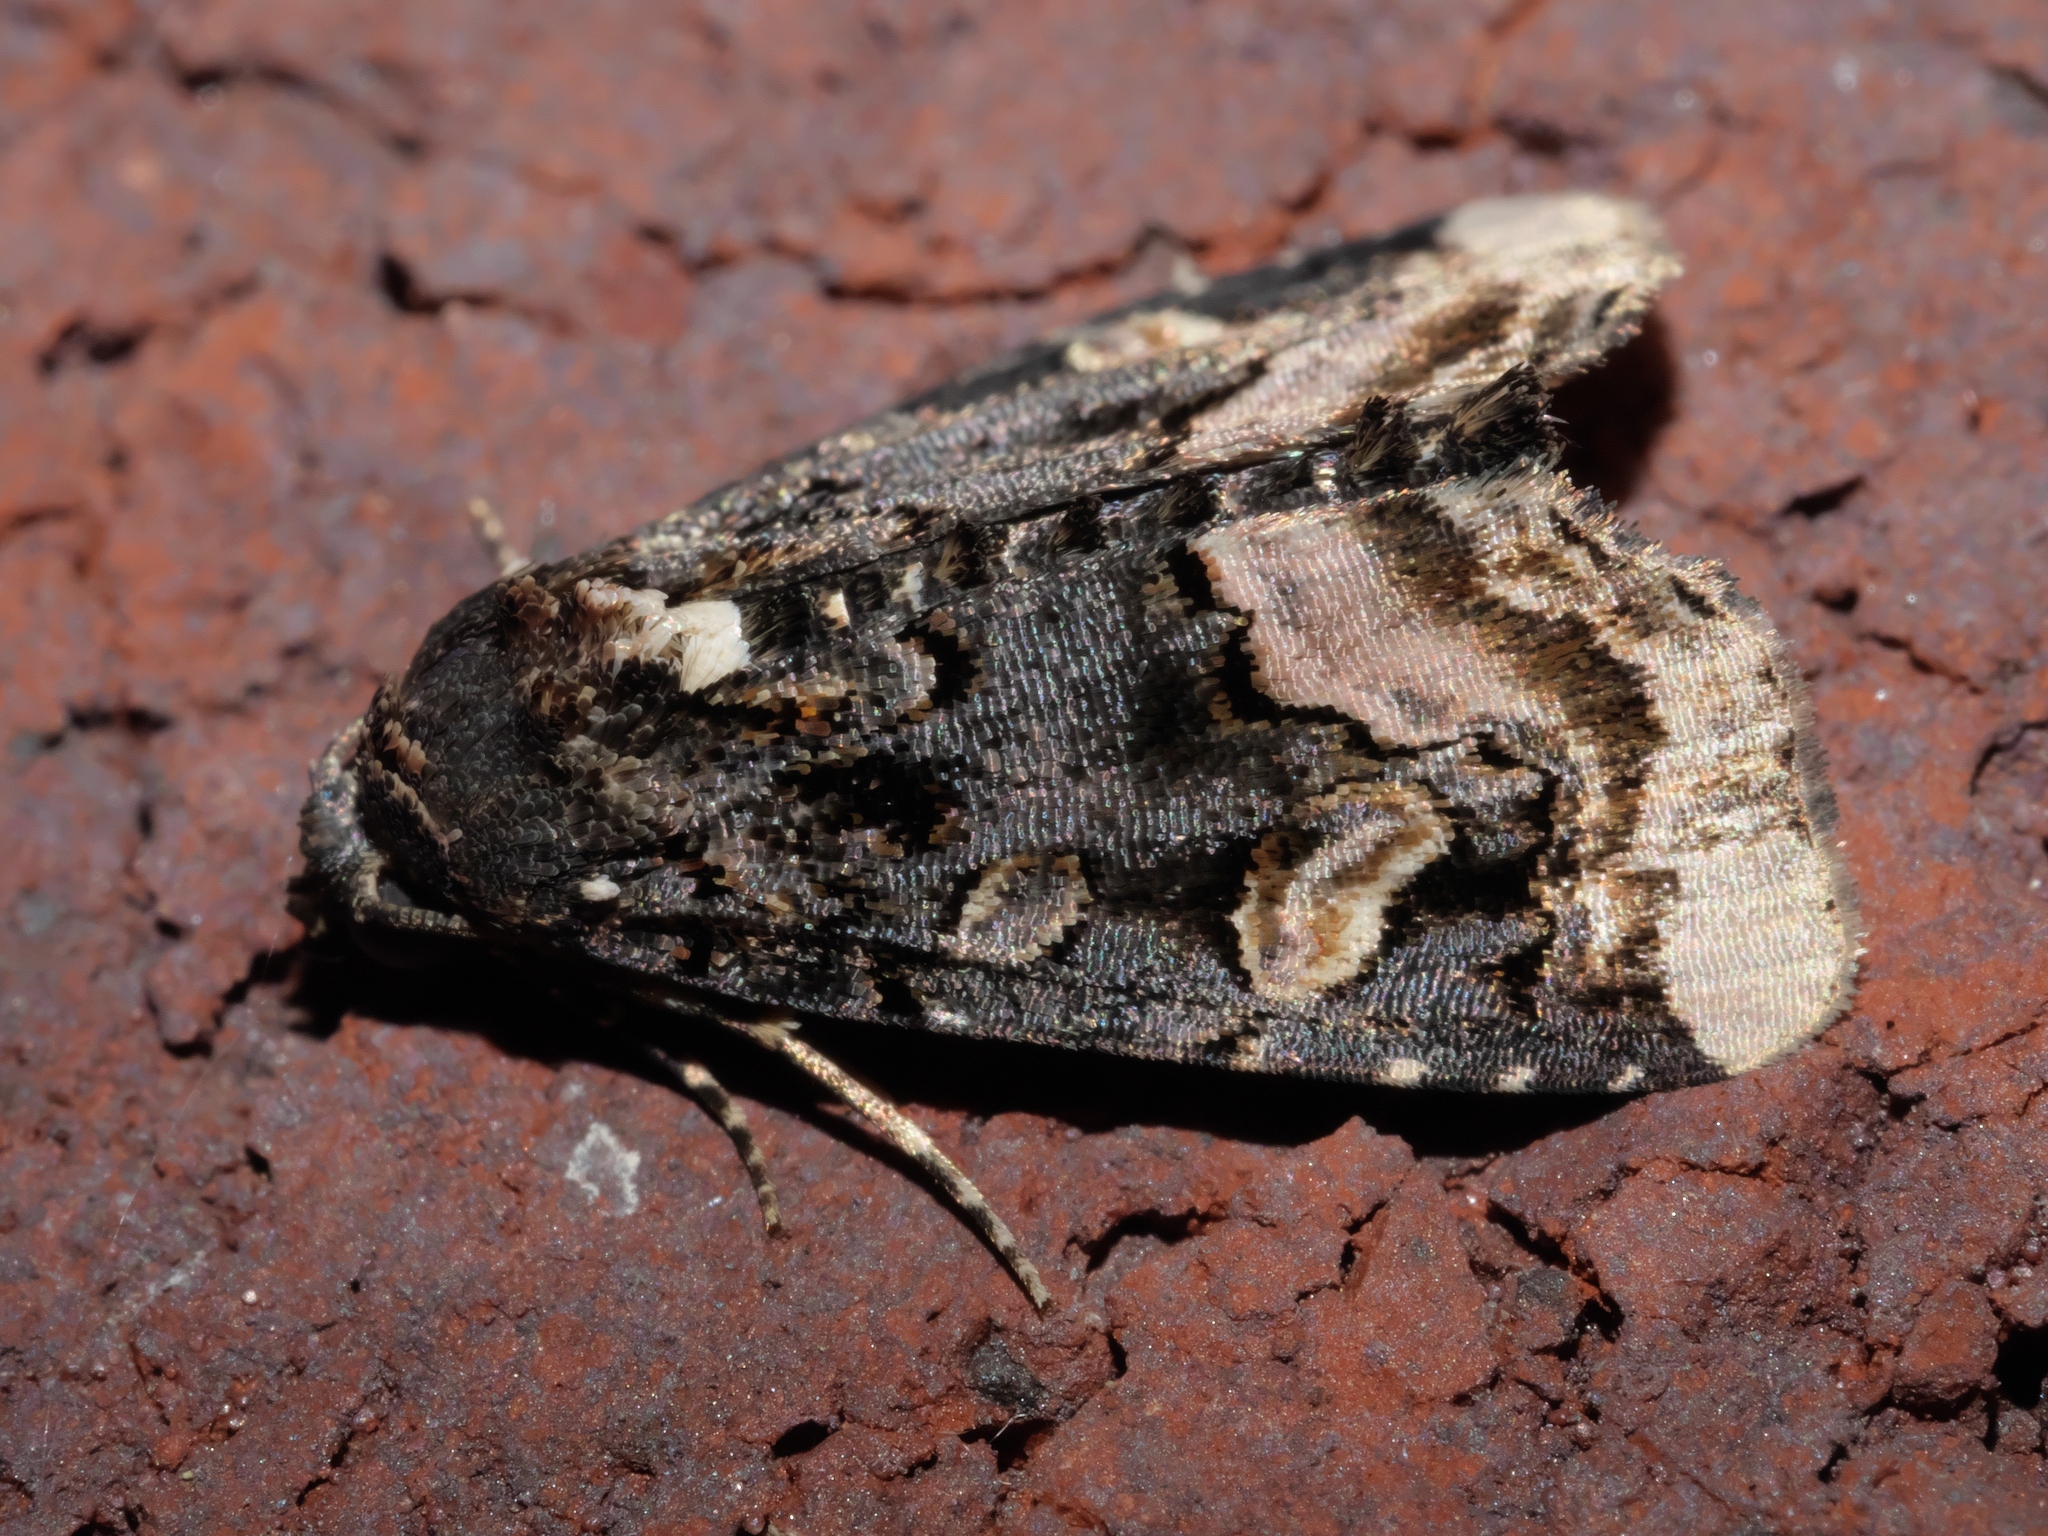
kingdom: Animalia
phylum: Arthropoda
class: Insecta
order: Lepidoptera
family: Noctuidae
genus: Homophoberia
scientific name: Homophoberia apicosa
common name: Black wedge-spot
